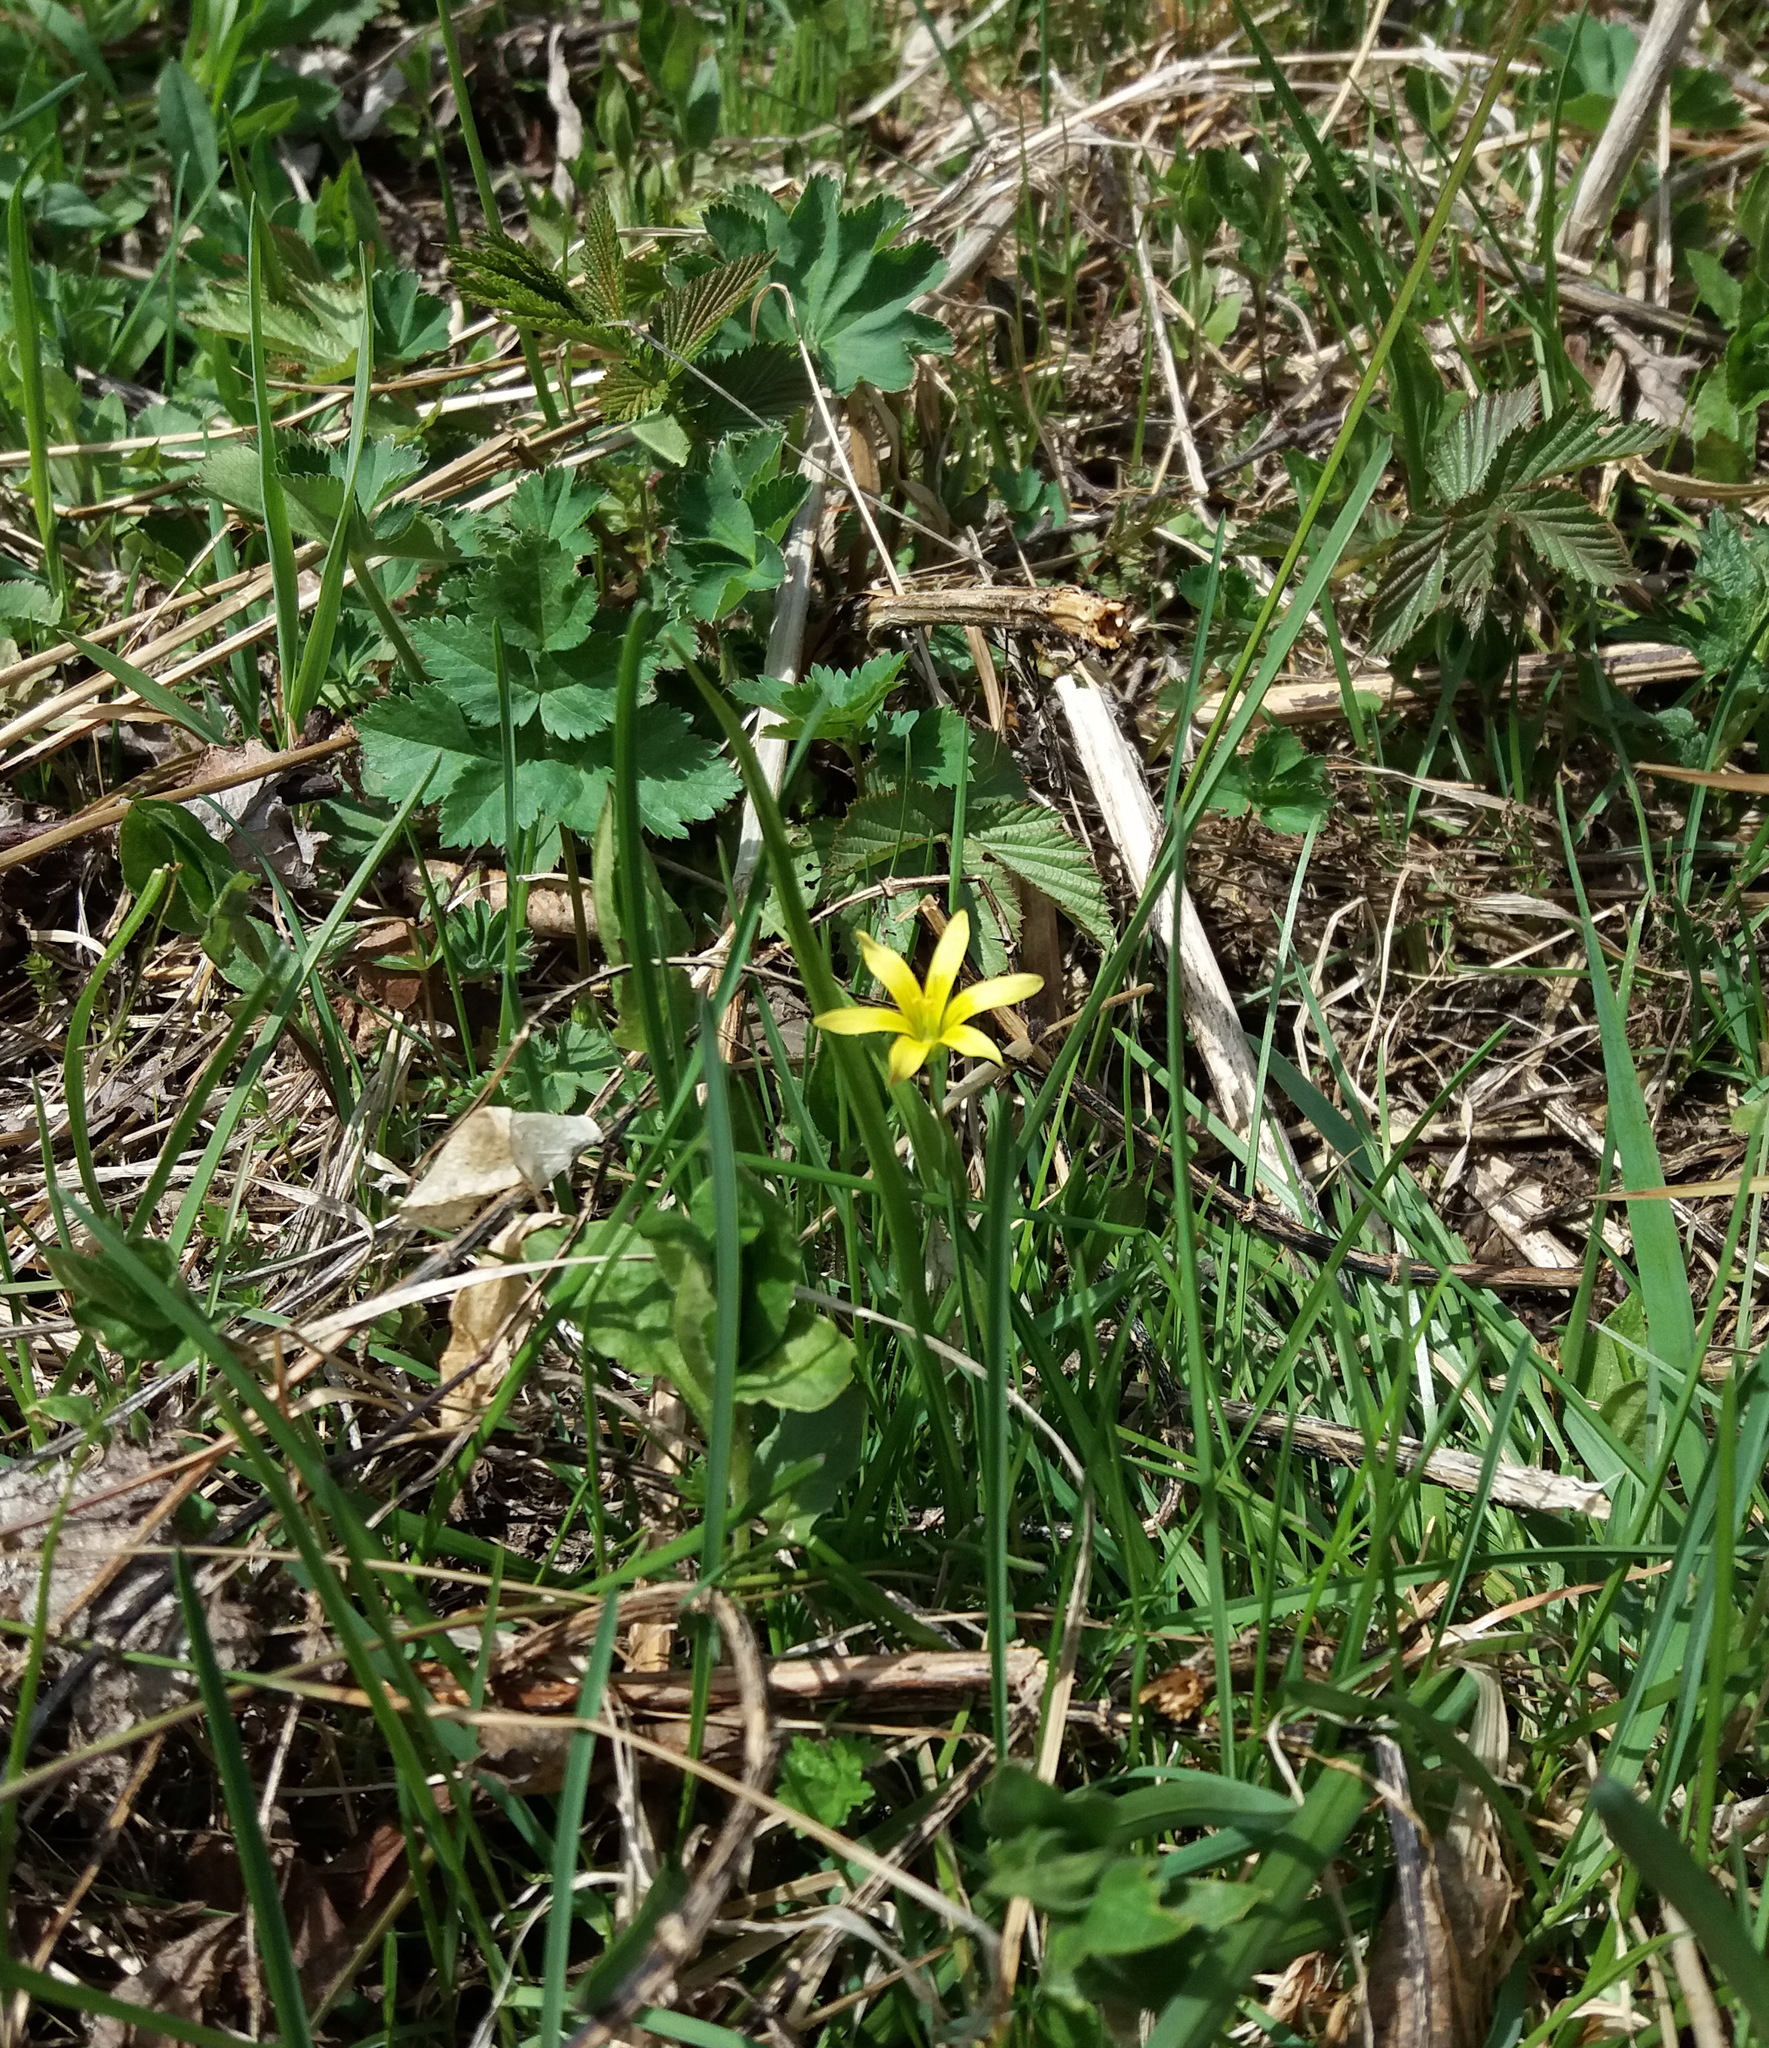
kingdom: Plantae
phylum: Tracheophyta
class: Liliopsida
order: Liliales
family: Liliaceae
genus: Gagea
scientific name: Gagea granulosa
